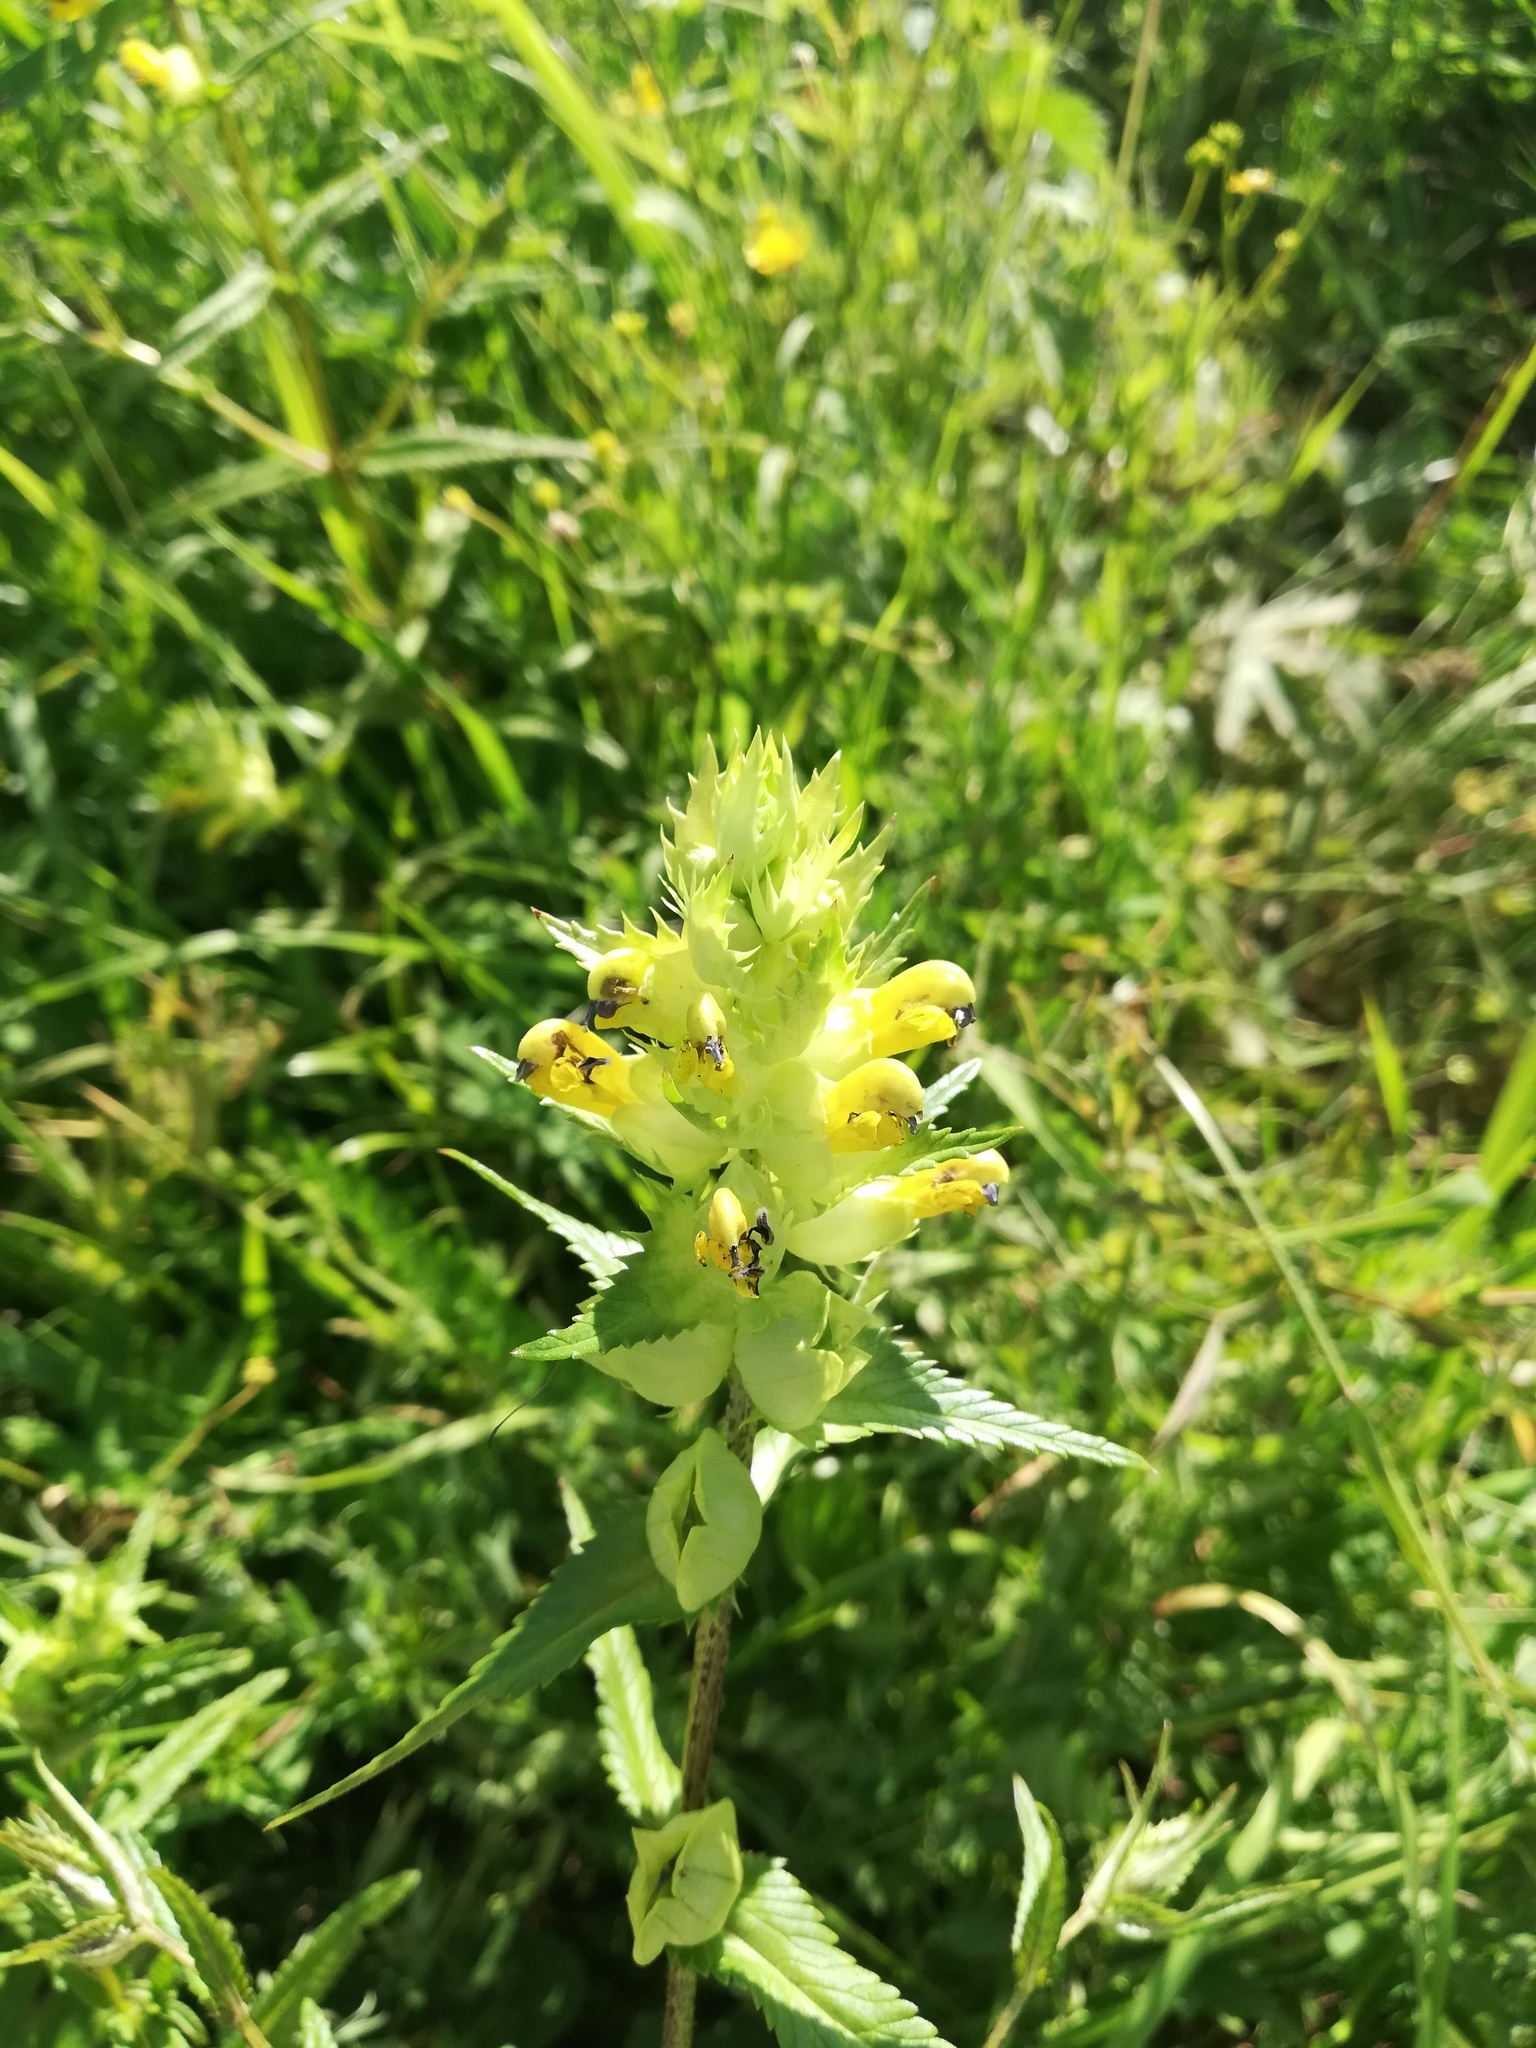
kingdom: Plantae
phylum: Tracheophyta
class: Magnoliopsida
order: Lamiales
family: Orobanchaceae
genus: Rhinanthus
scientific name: Rhinanthus serotinus
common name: Late-flowering yellow rattle
